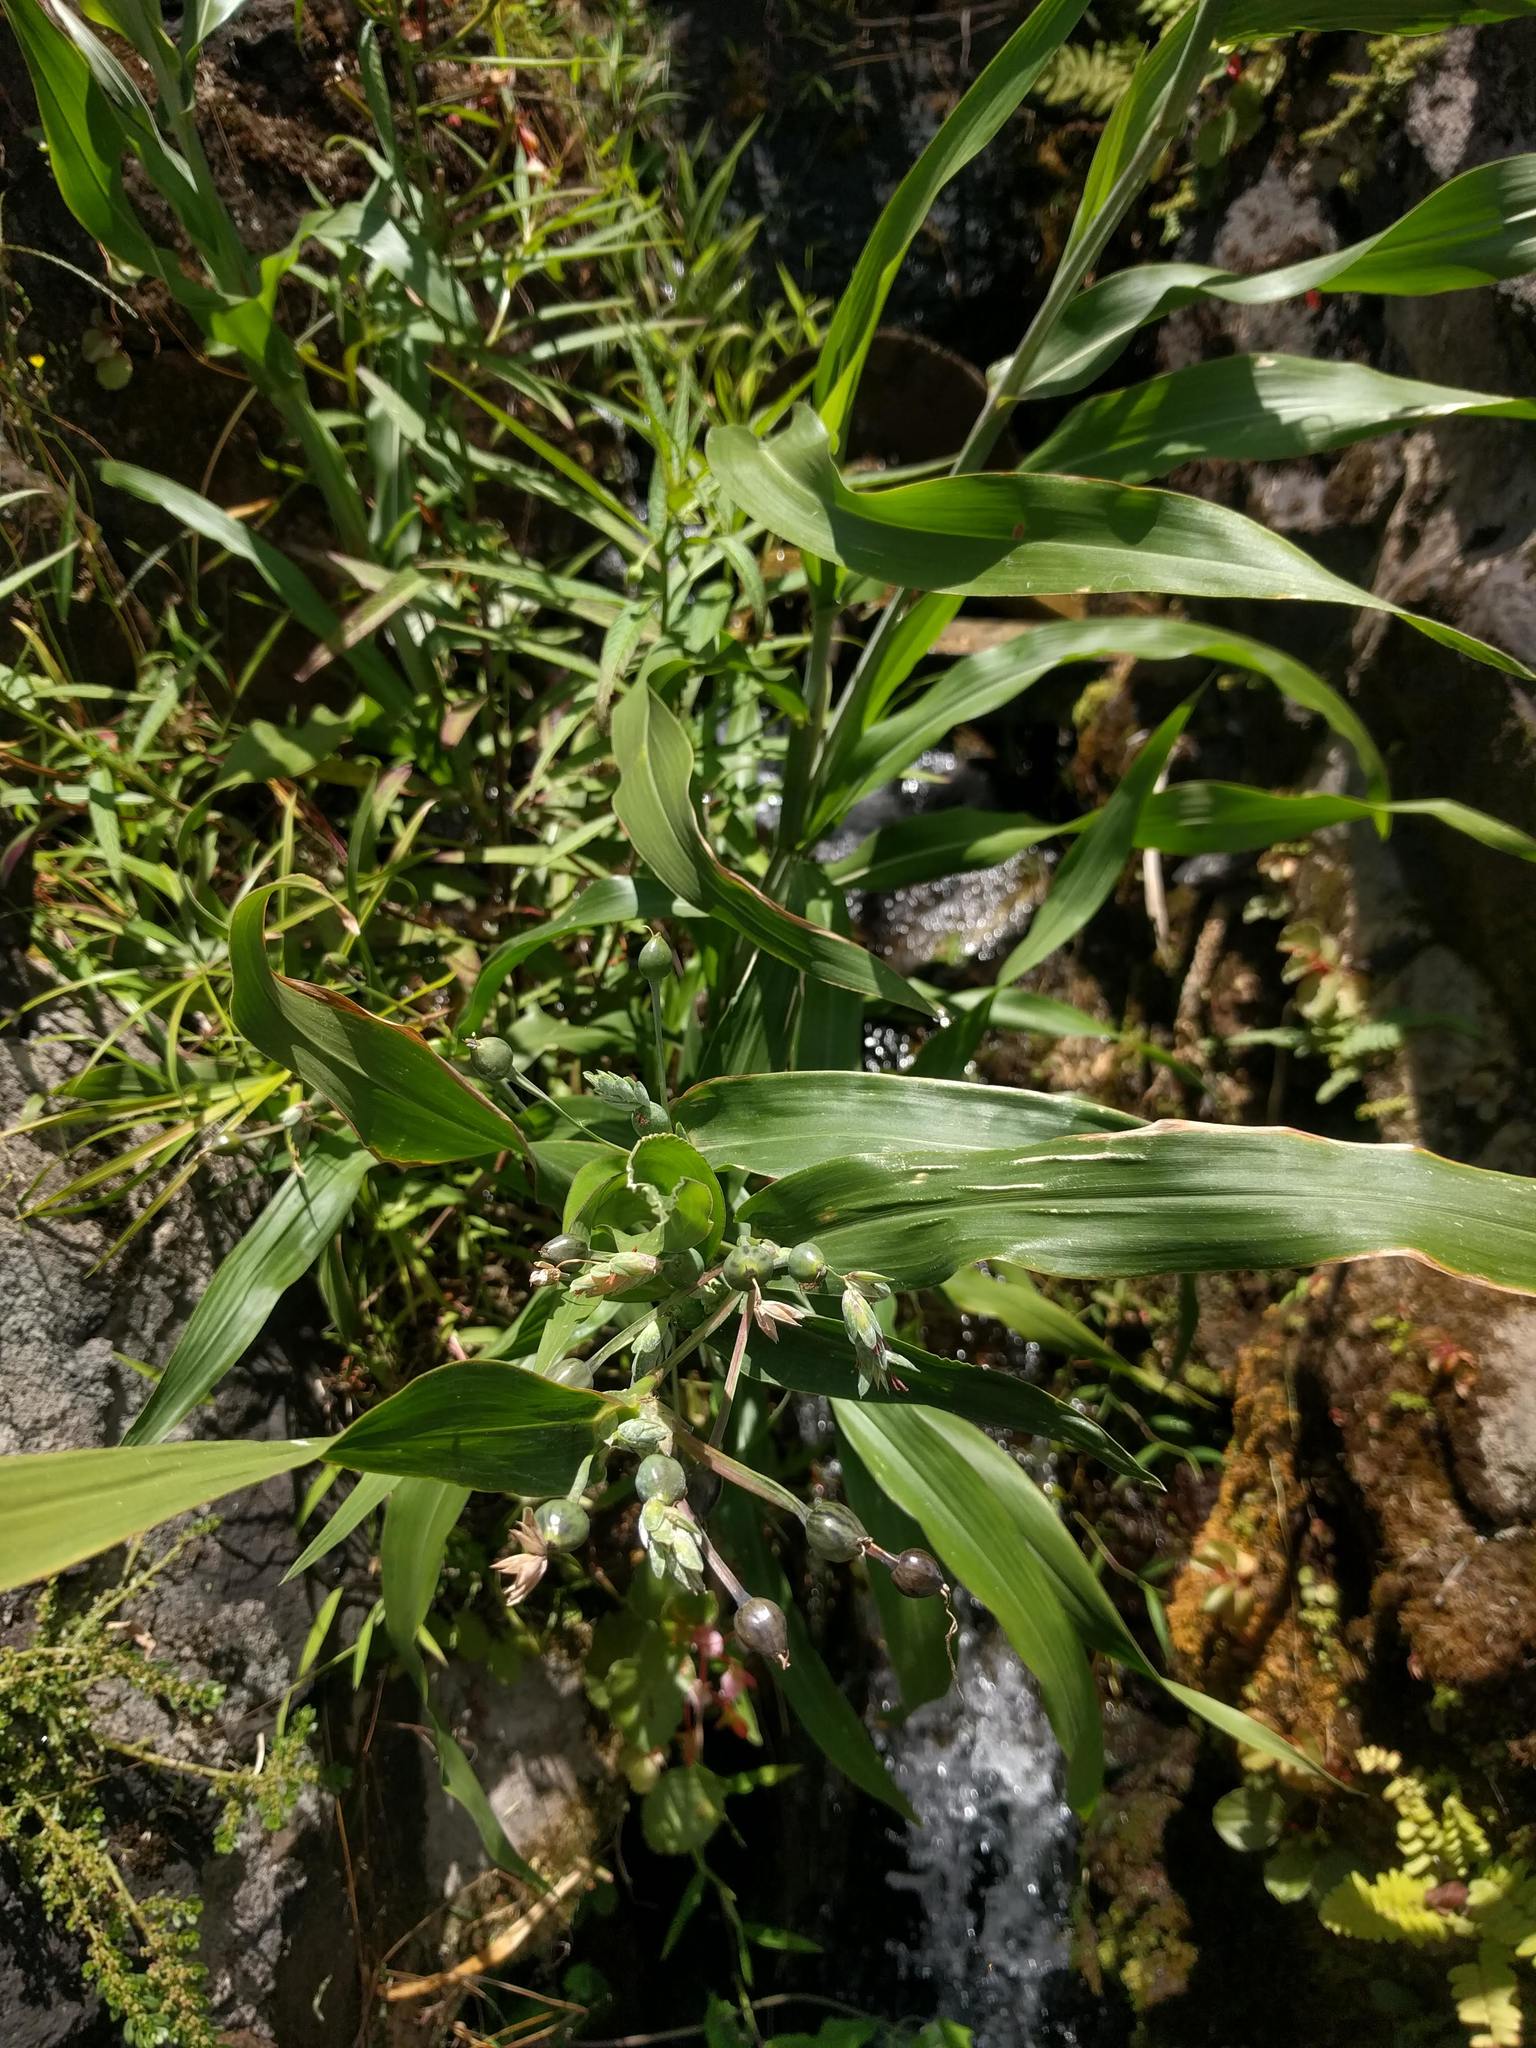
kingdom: Plantae
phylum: Tracheophyta
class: Liliopsida
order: Poales
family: Poaceae
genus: Coix
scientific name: Coix lacryma-jobi
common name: Job's tears
